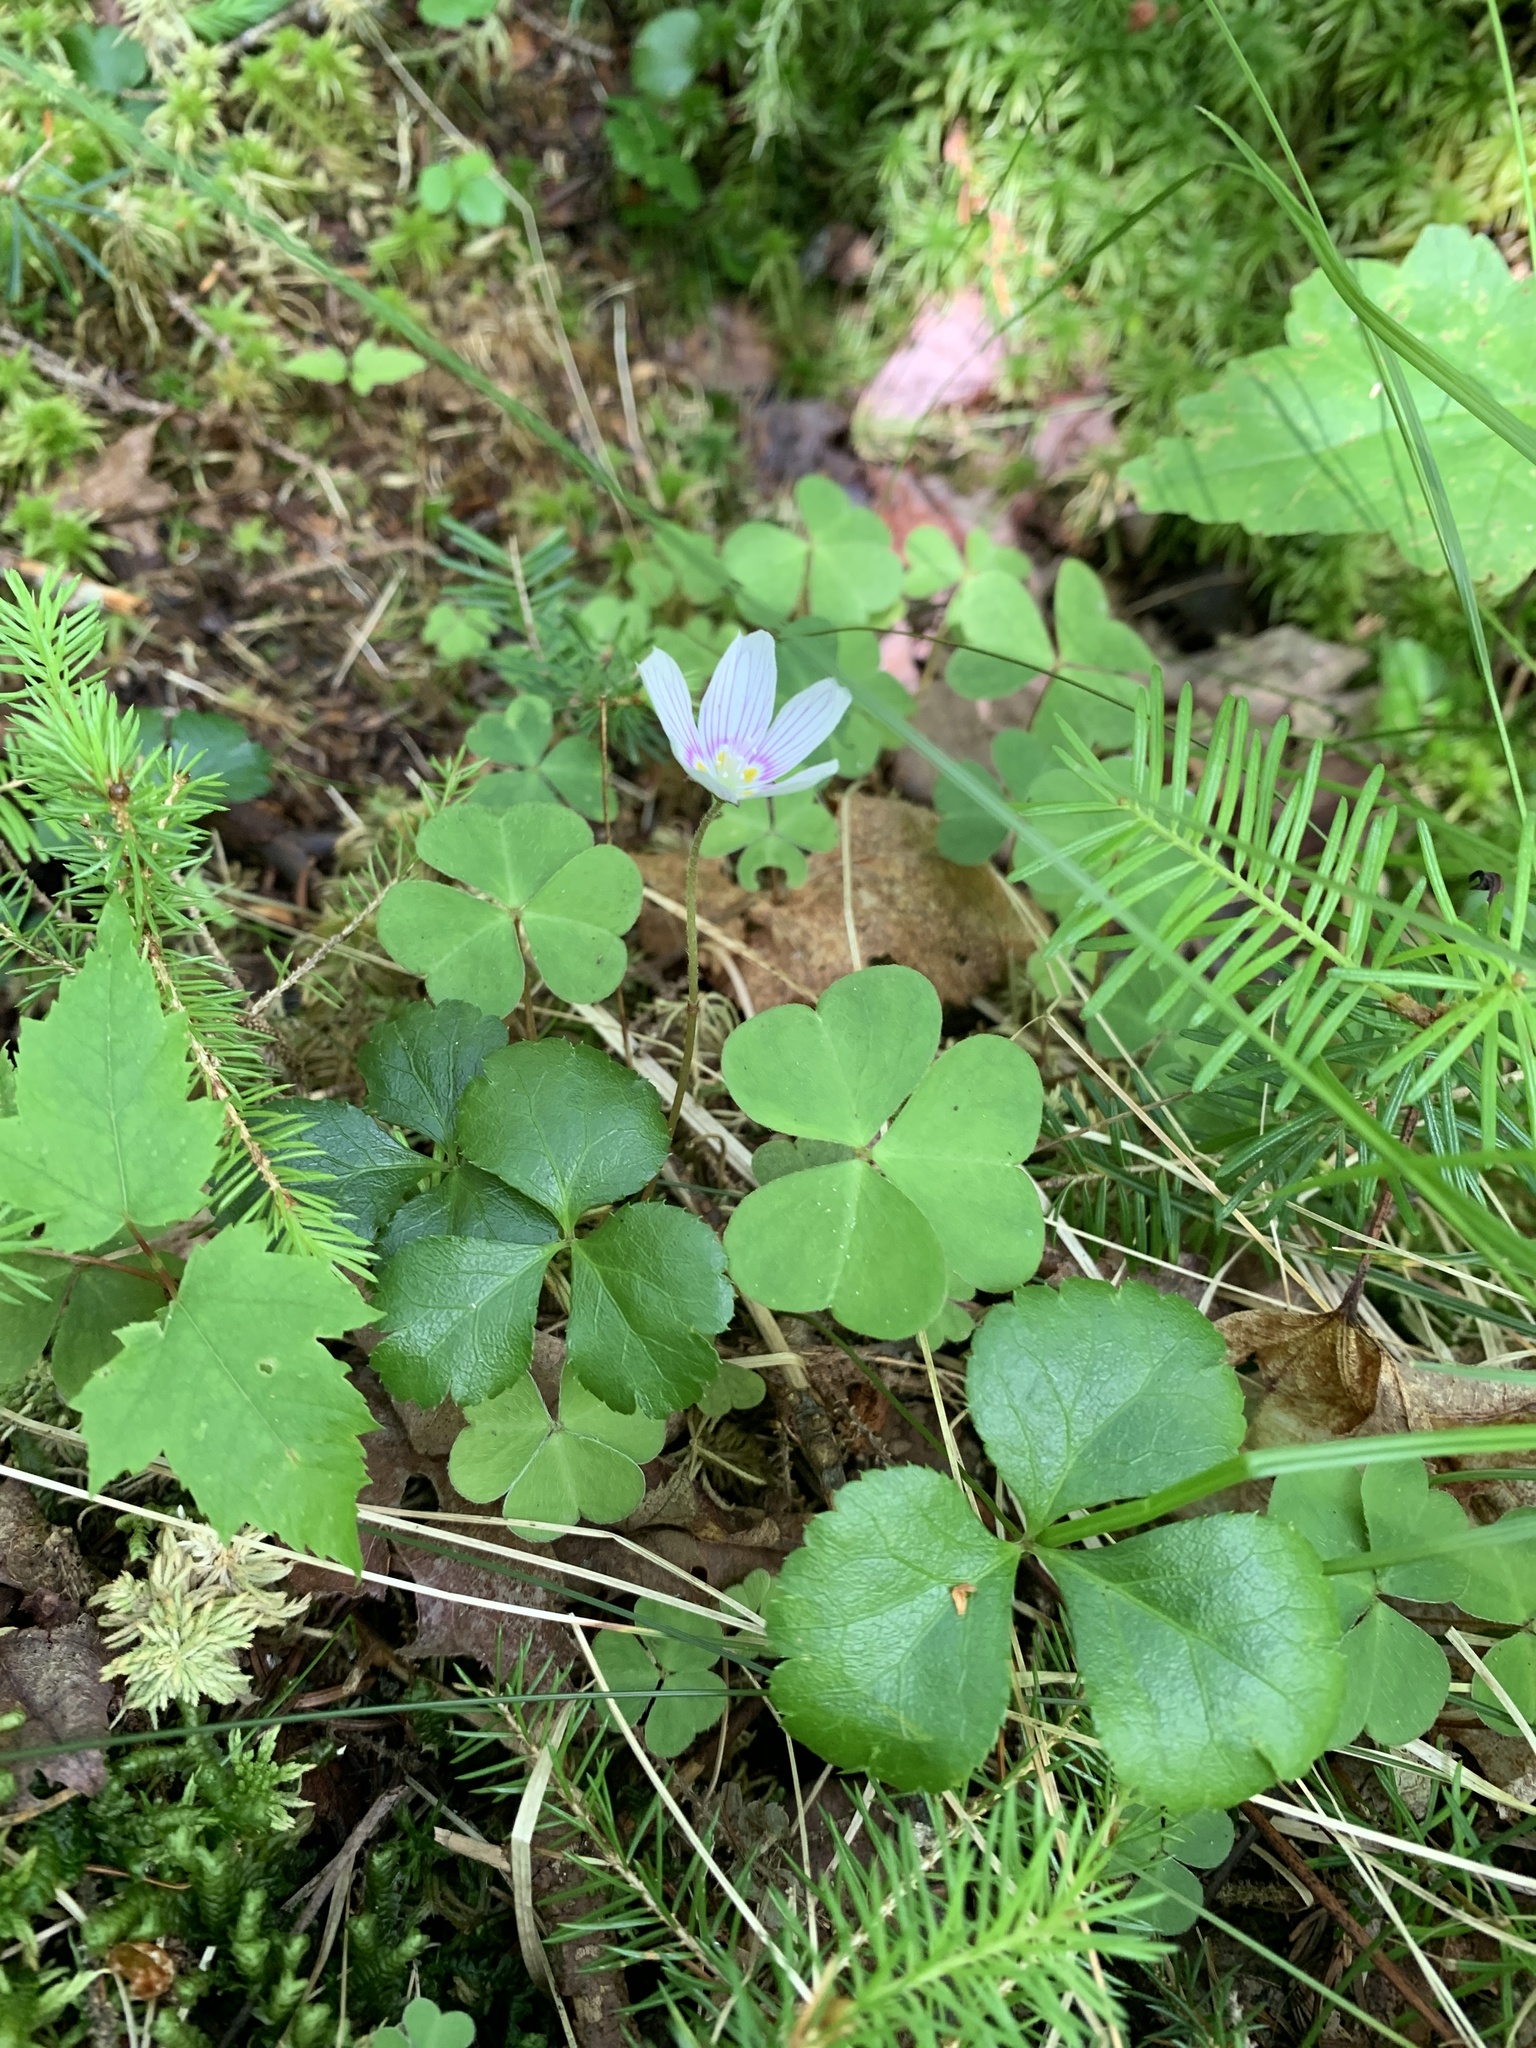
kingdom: Plantae
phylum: Tracheophyta
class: Magnoliopsida
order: Oxalidales
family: Oxalidaceae
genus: Oxalis
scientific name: Oxalis montana
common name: American wood-sorrel
